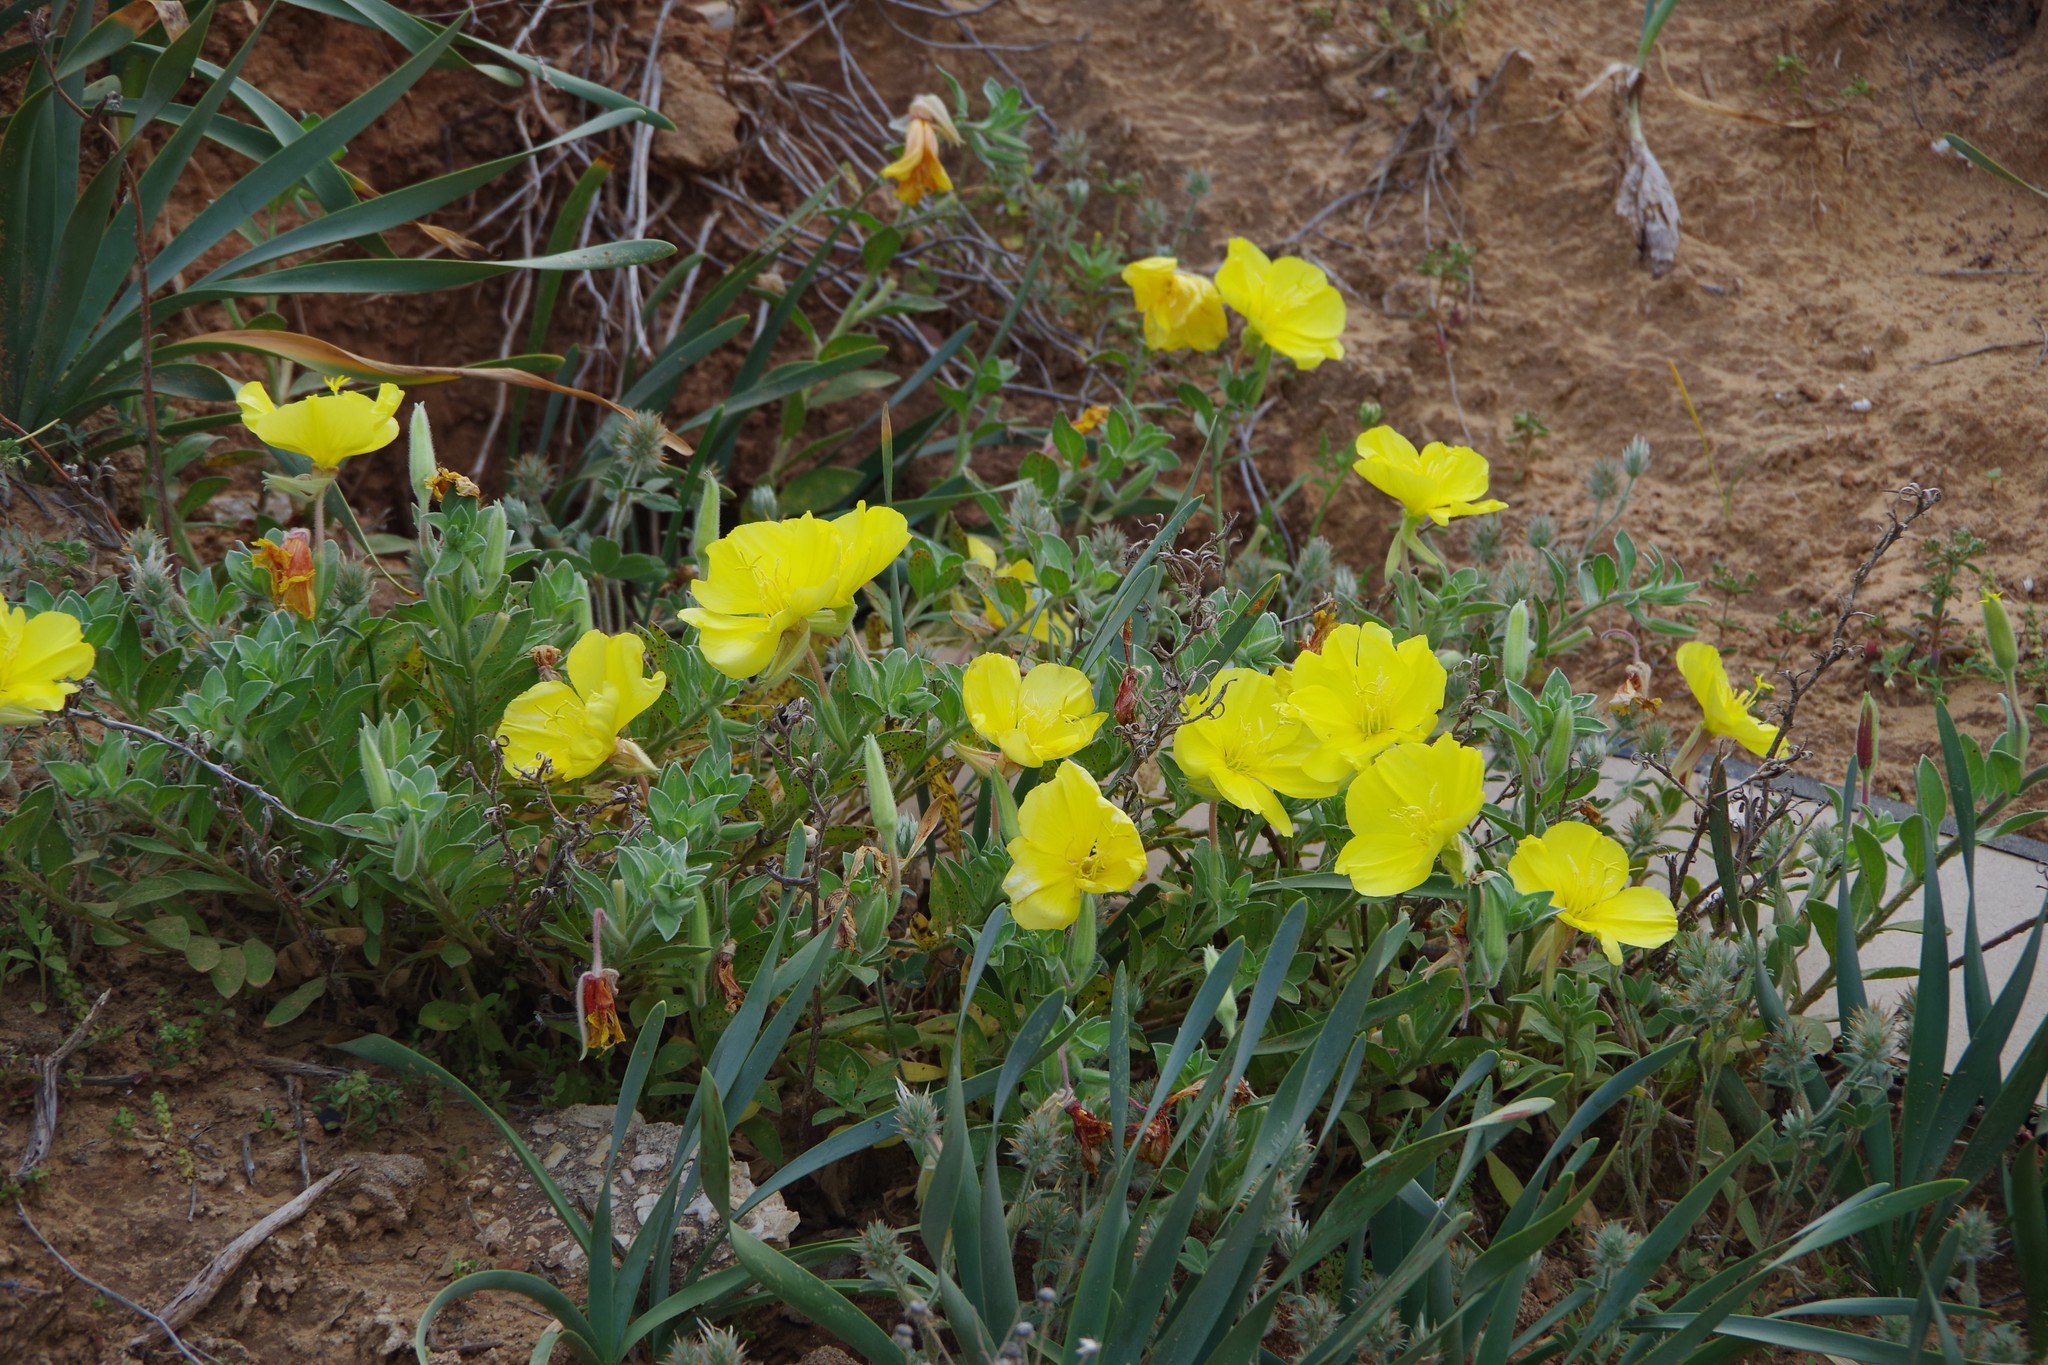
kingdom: Plantae
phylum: Tracheophyta
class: Magnoliopsida
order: Myrtales
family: Onagraceae
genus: Oenothera
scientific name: Oenothera drummondii
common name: Beach evening-primrose
